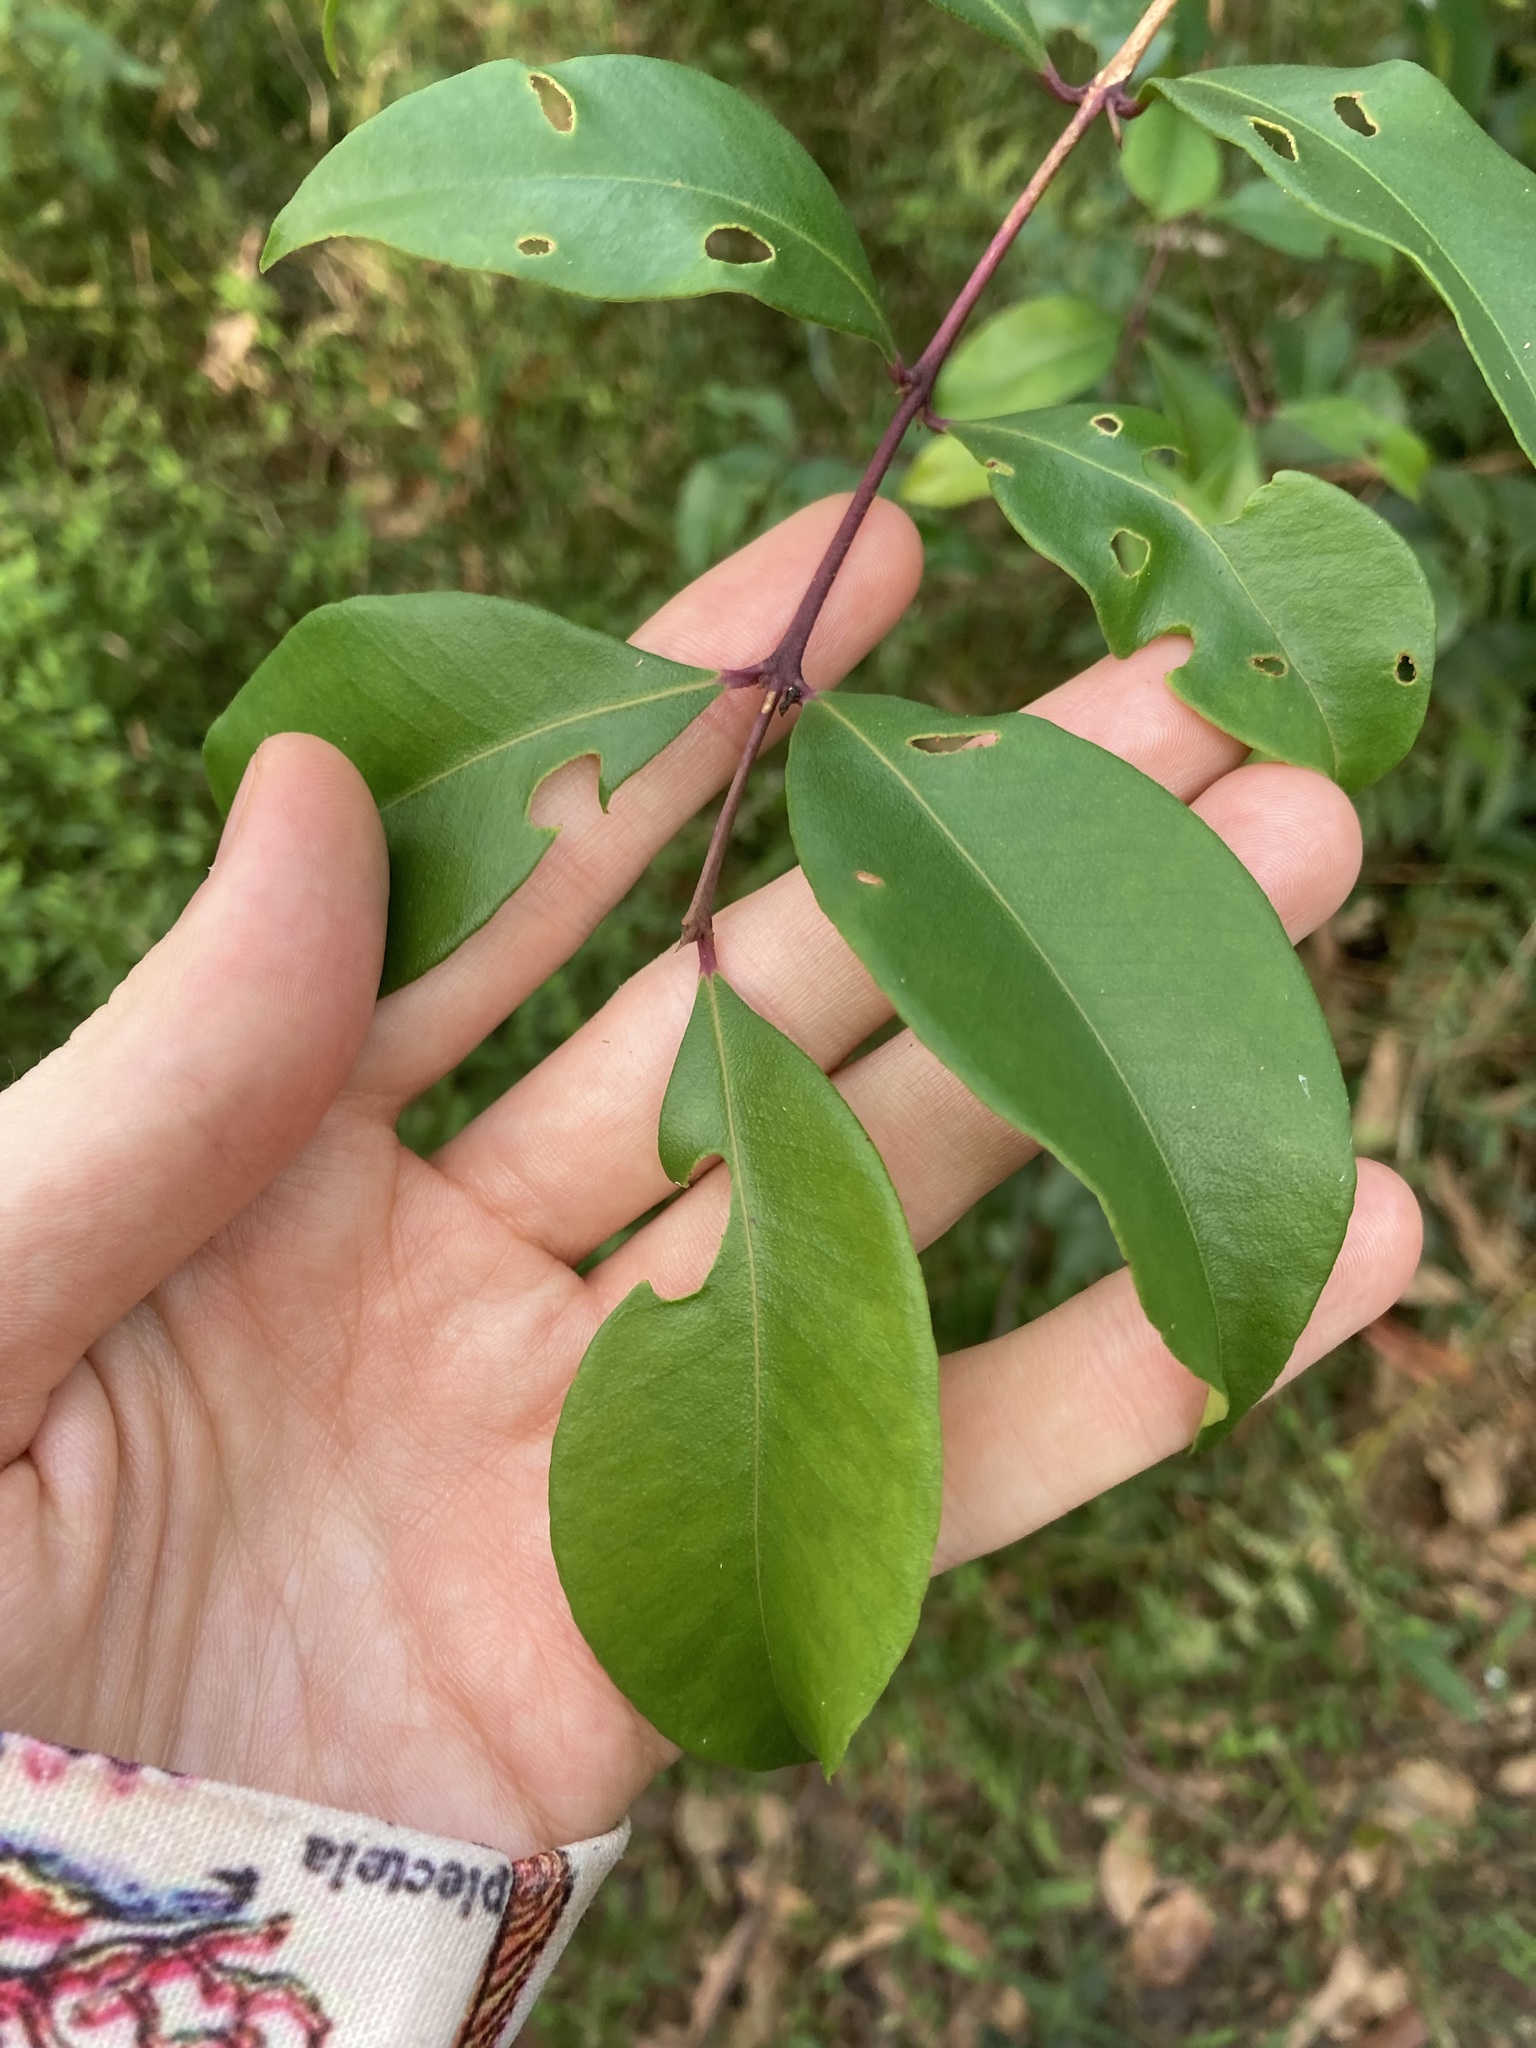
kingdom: Plantae
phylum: Tracheophyta
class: Magnoliopsida
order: Myrtales
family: Myrtaceae
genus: Syzygium
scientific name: Syzygium smithii
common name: Lilly-pilly
